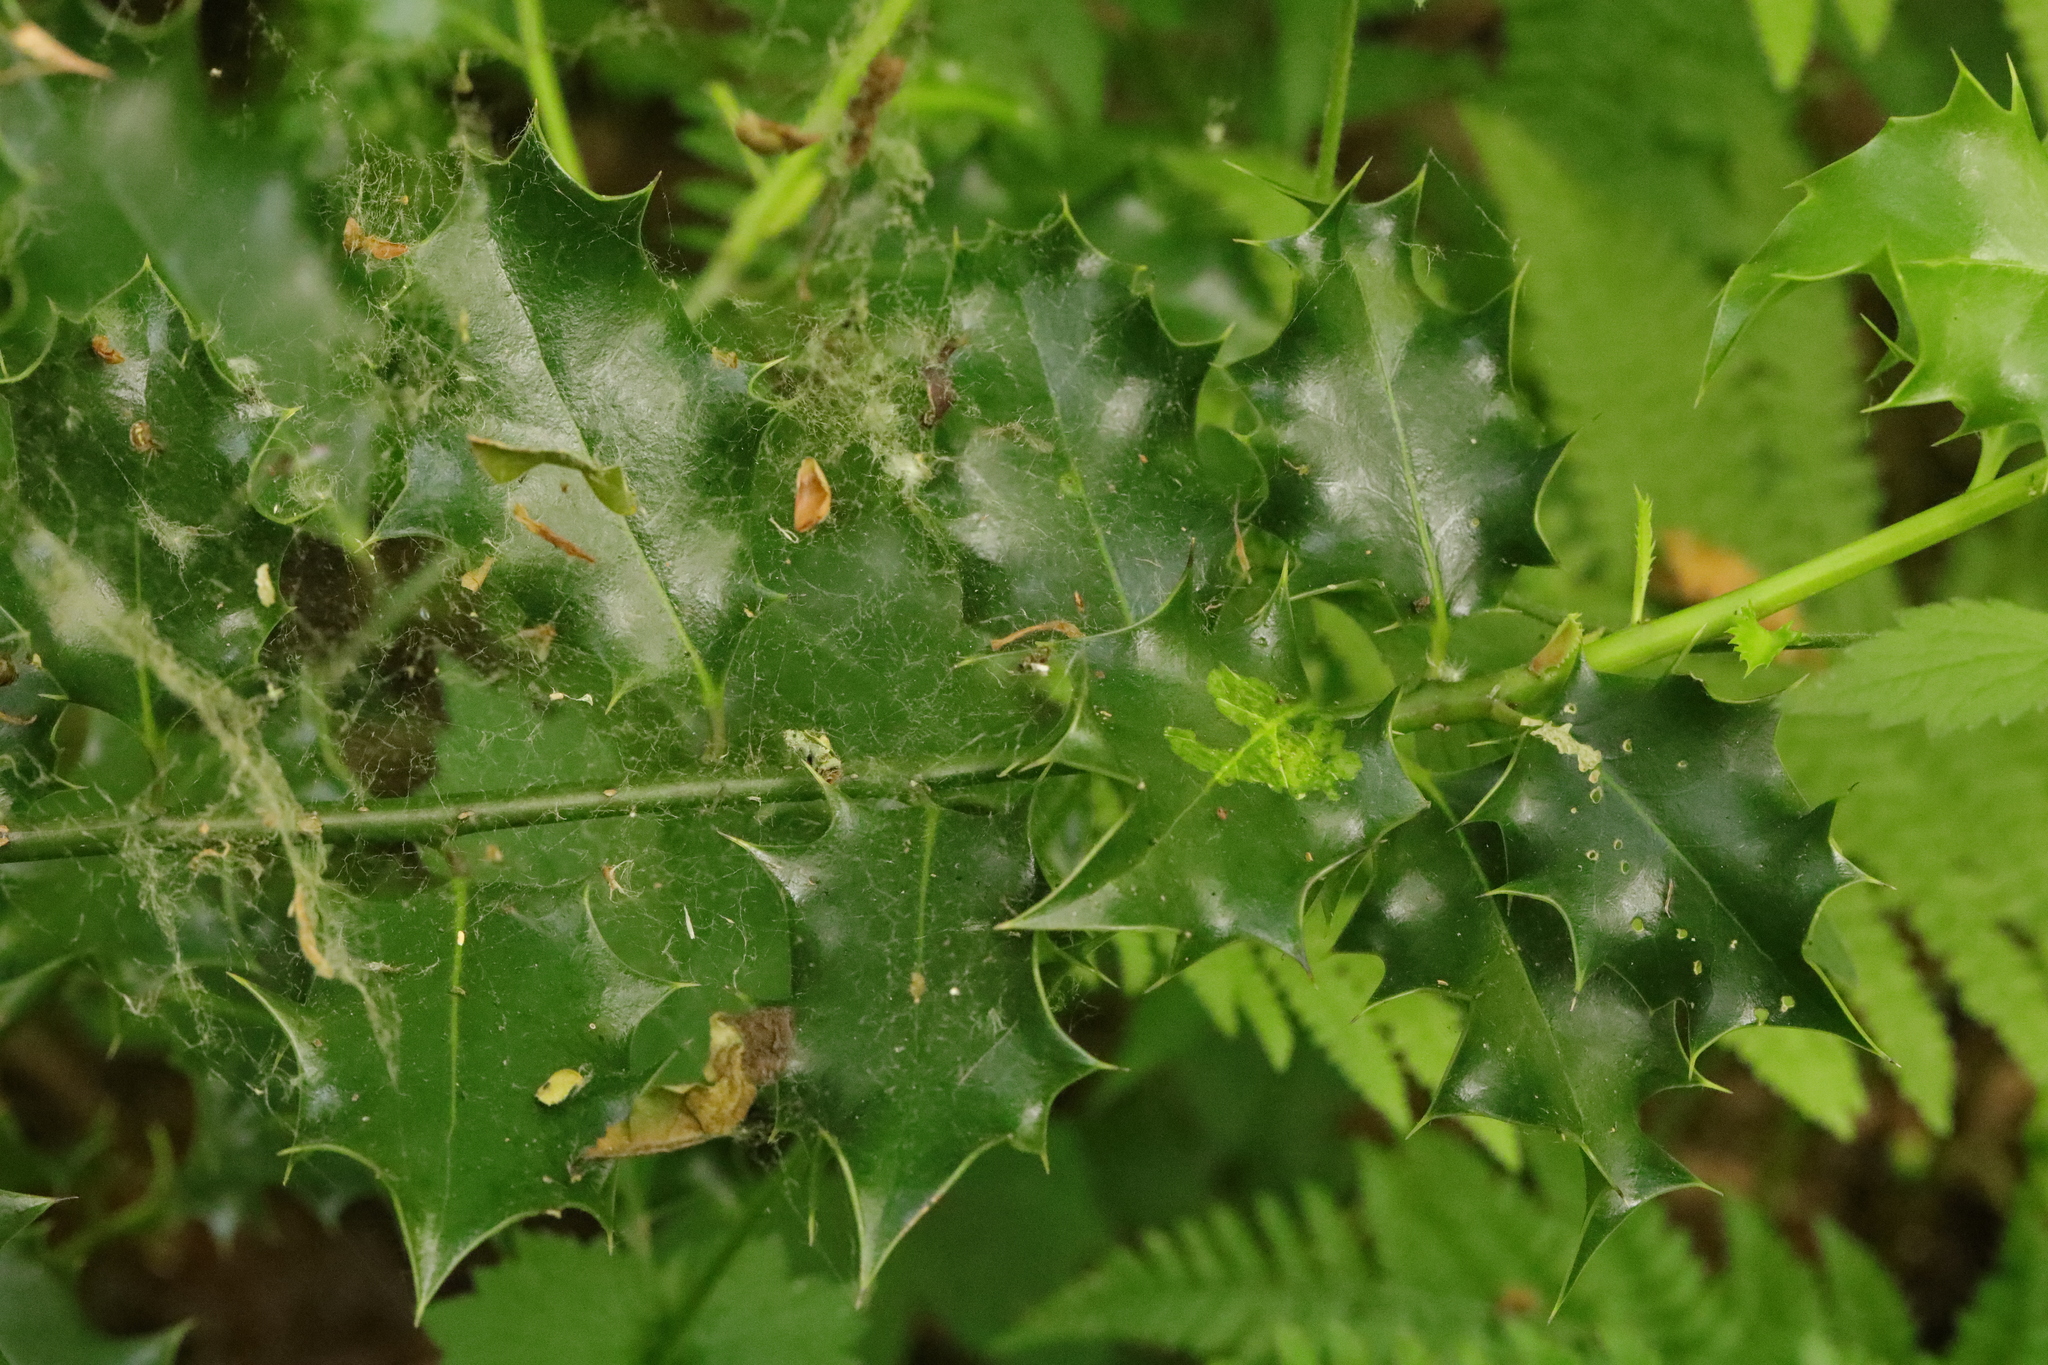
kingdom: Animalia
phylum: Arthropoda
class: Insecta
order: Diptera
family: Agromyzidae
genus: Phytomyza
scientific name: Phytomyza ilicis
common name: Holly leafminer
